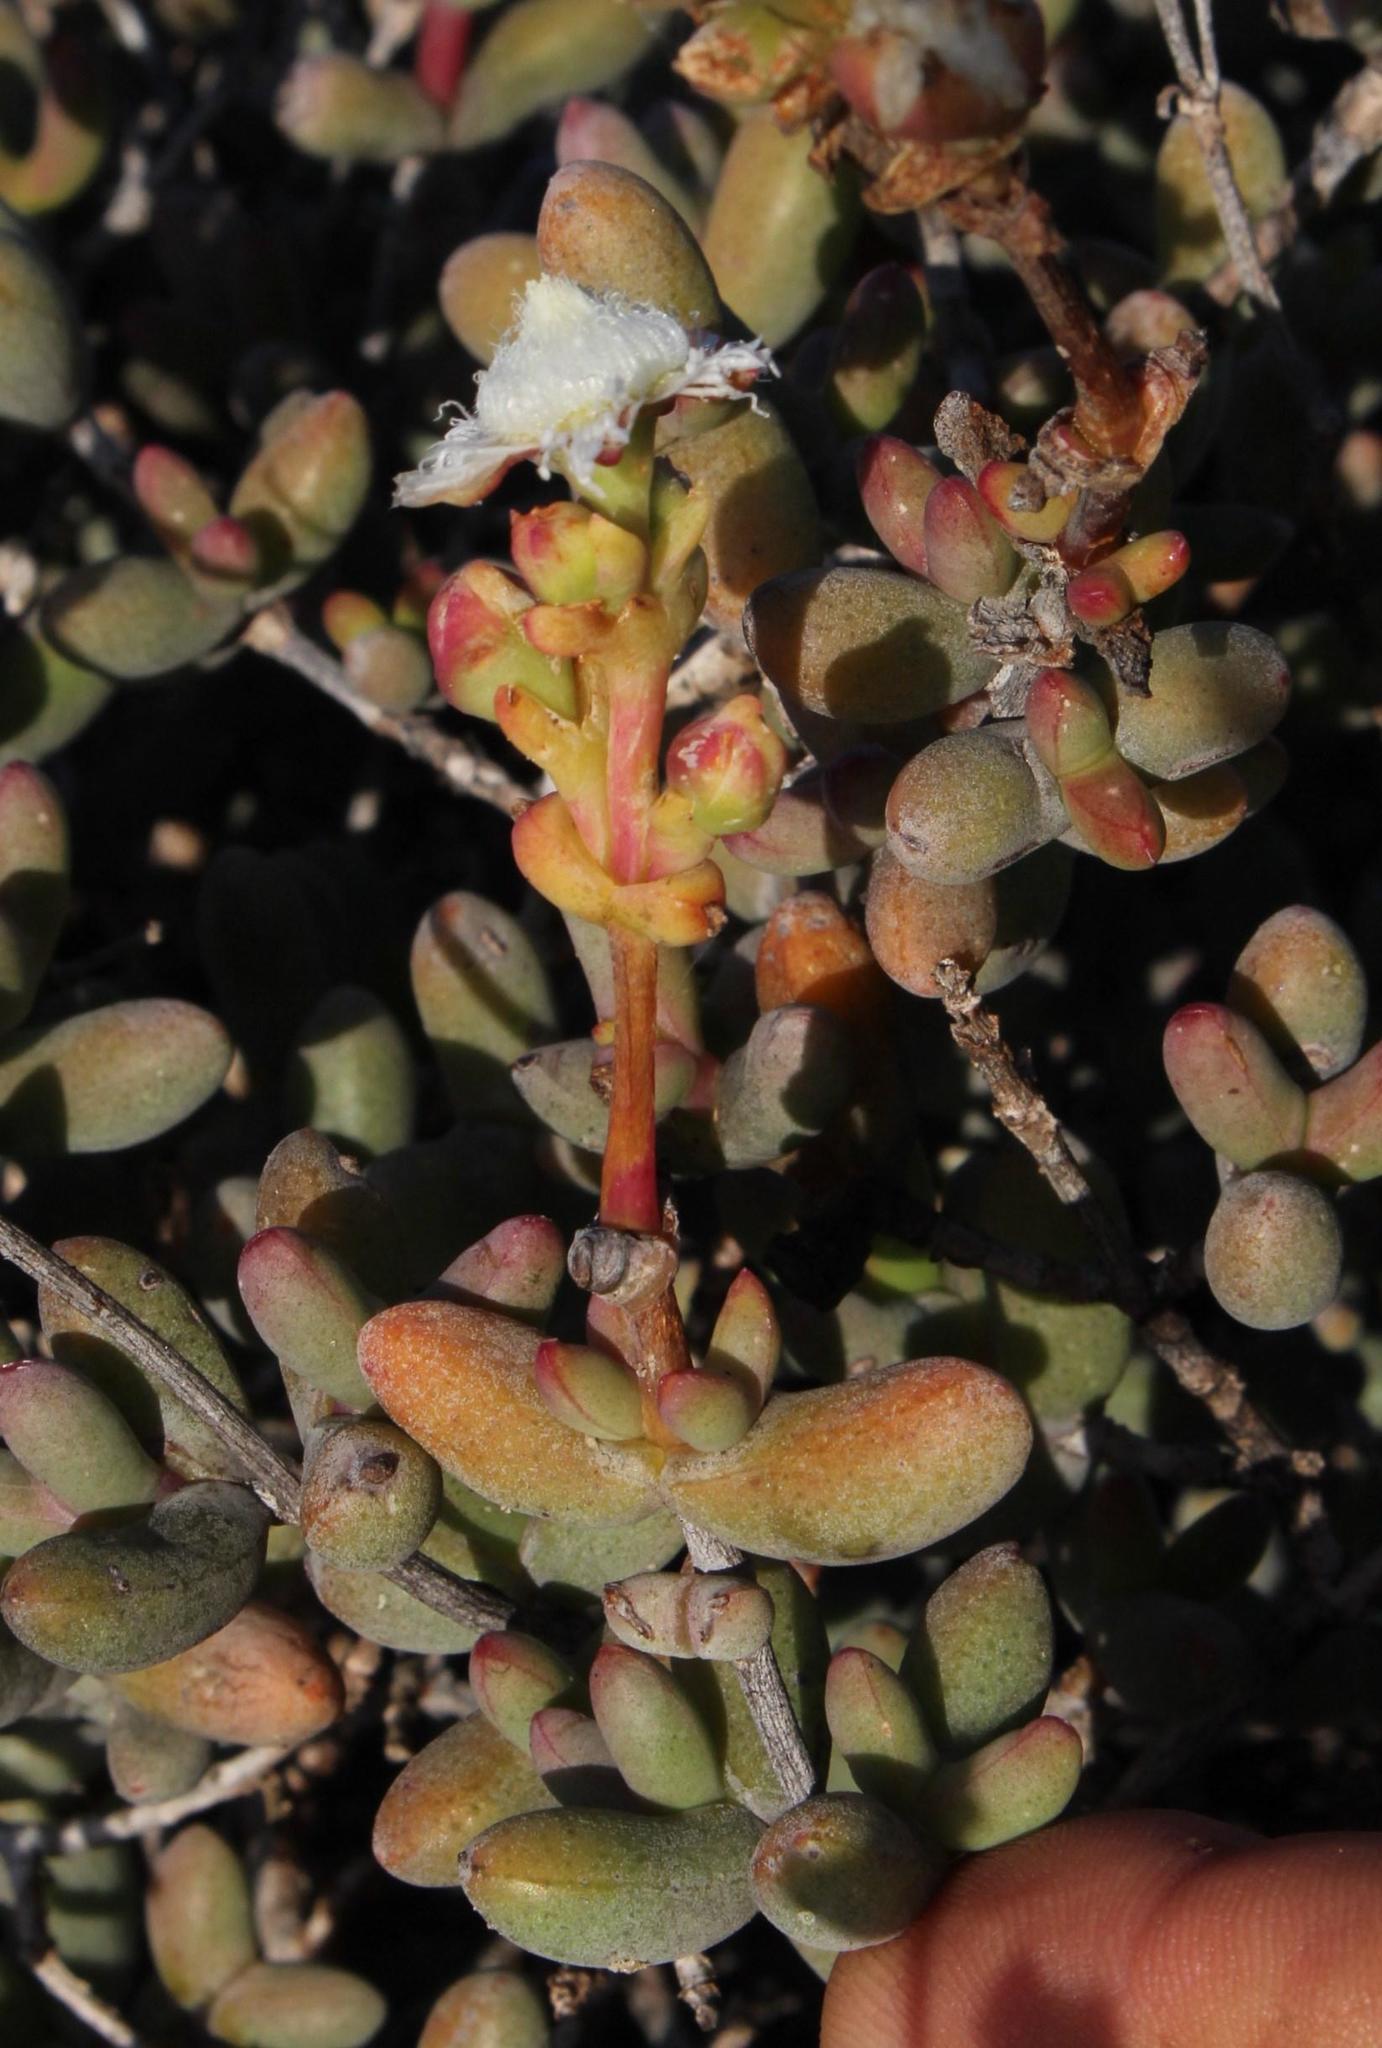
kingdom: Plantae
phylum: Tracheophyta
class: Magnoliopsida
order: Caryophyllales
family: Aizoaceae
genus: Stoeberia
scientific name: Stoeberia beetzii
